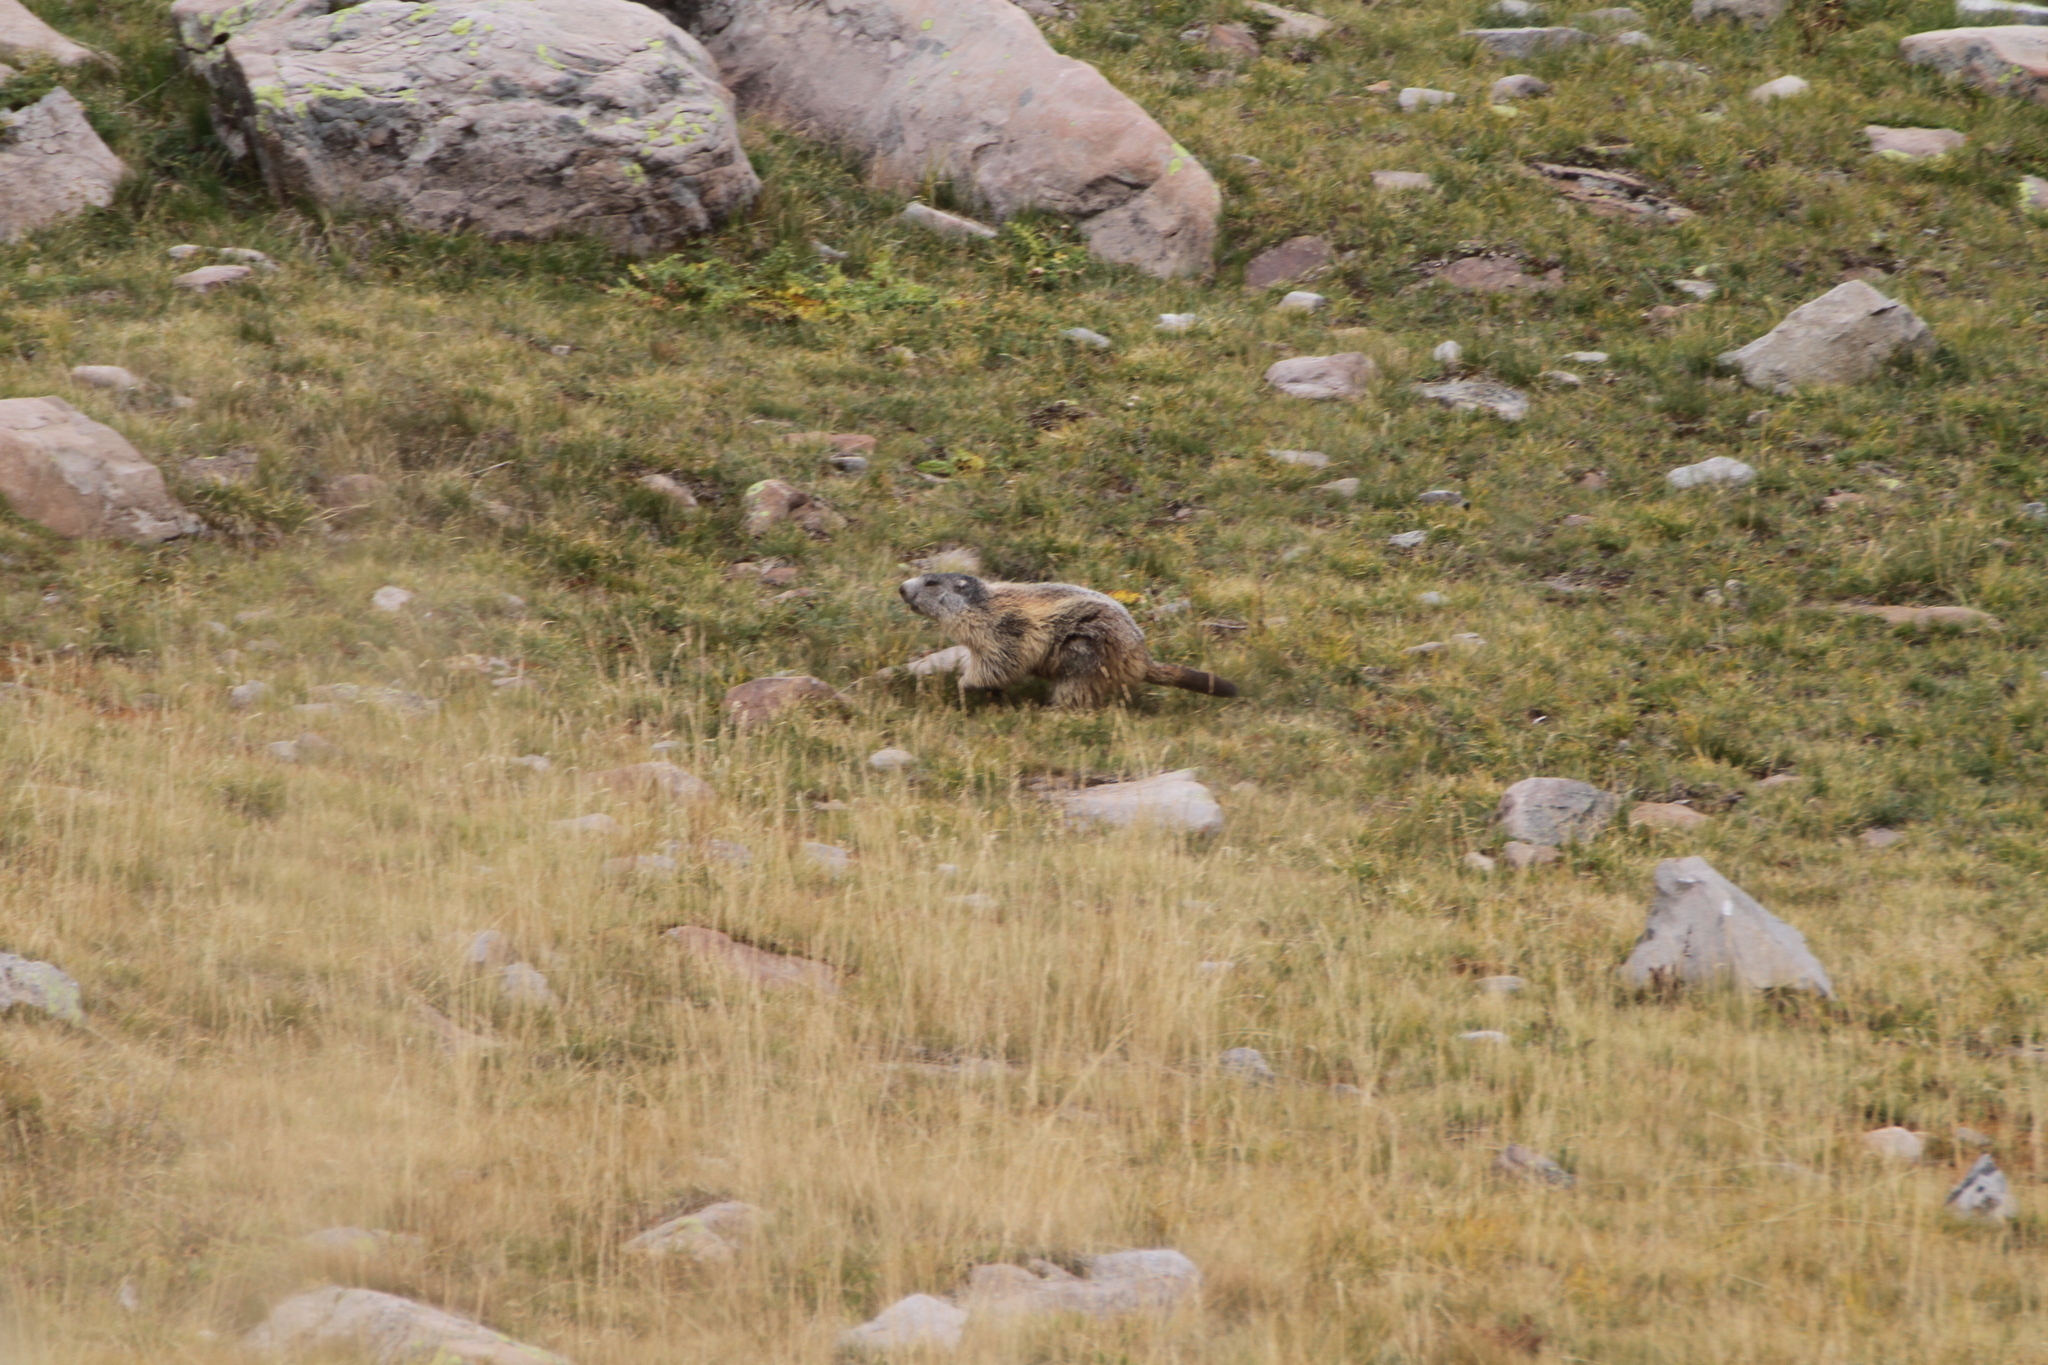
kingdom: Animalia
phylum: Chordata
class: Mammalia
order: Rodentia
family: Sciuridae
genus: Marmota
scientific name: Marmota marmota
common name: Alpine marmot
